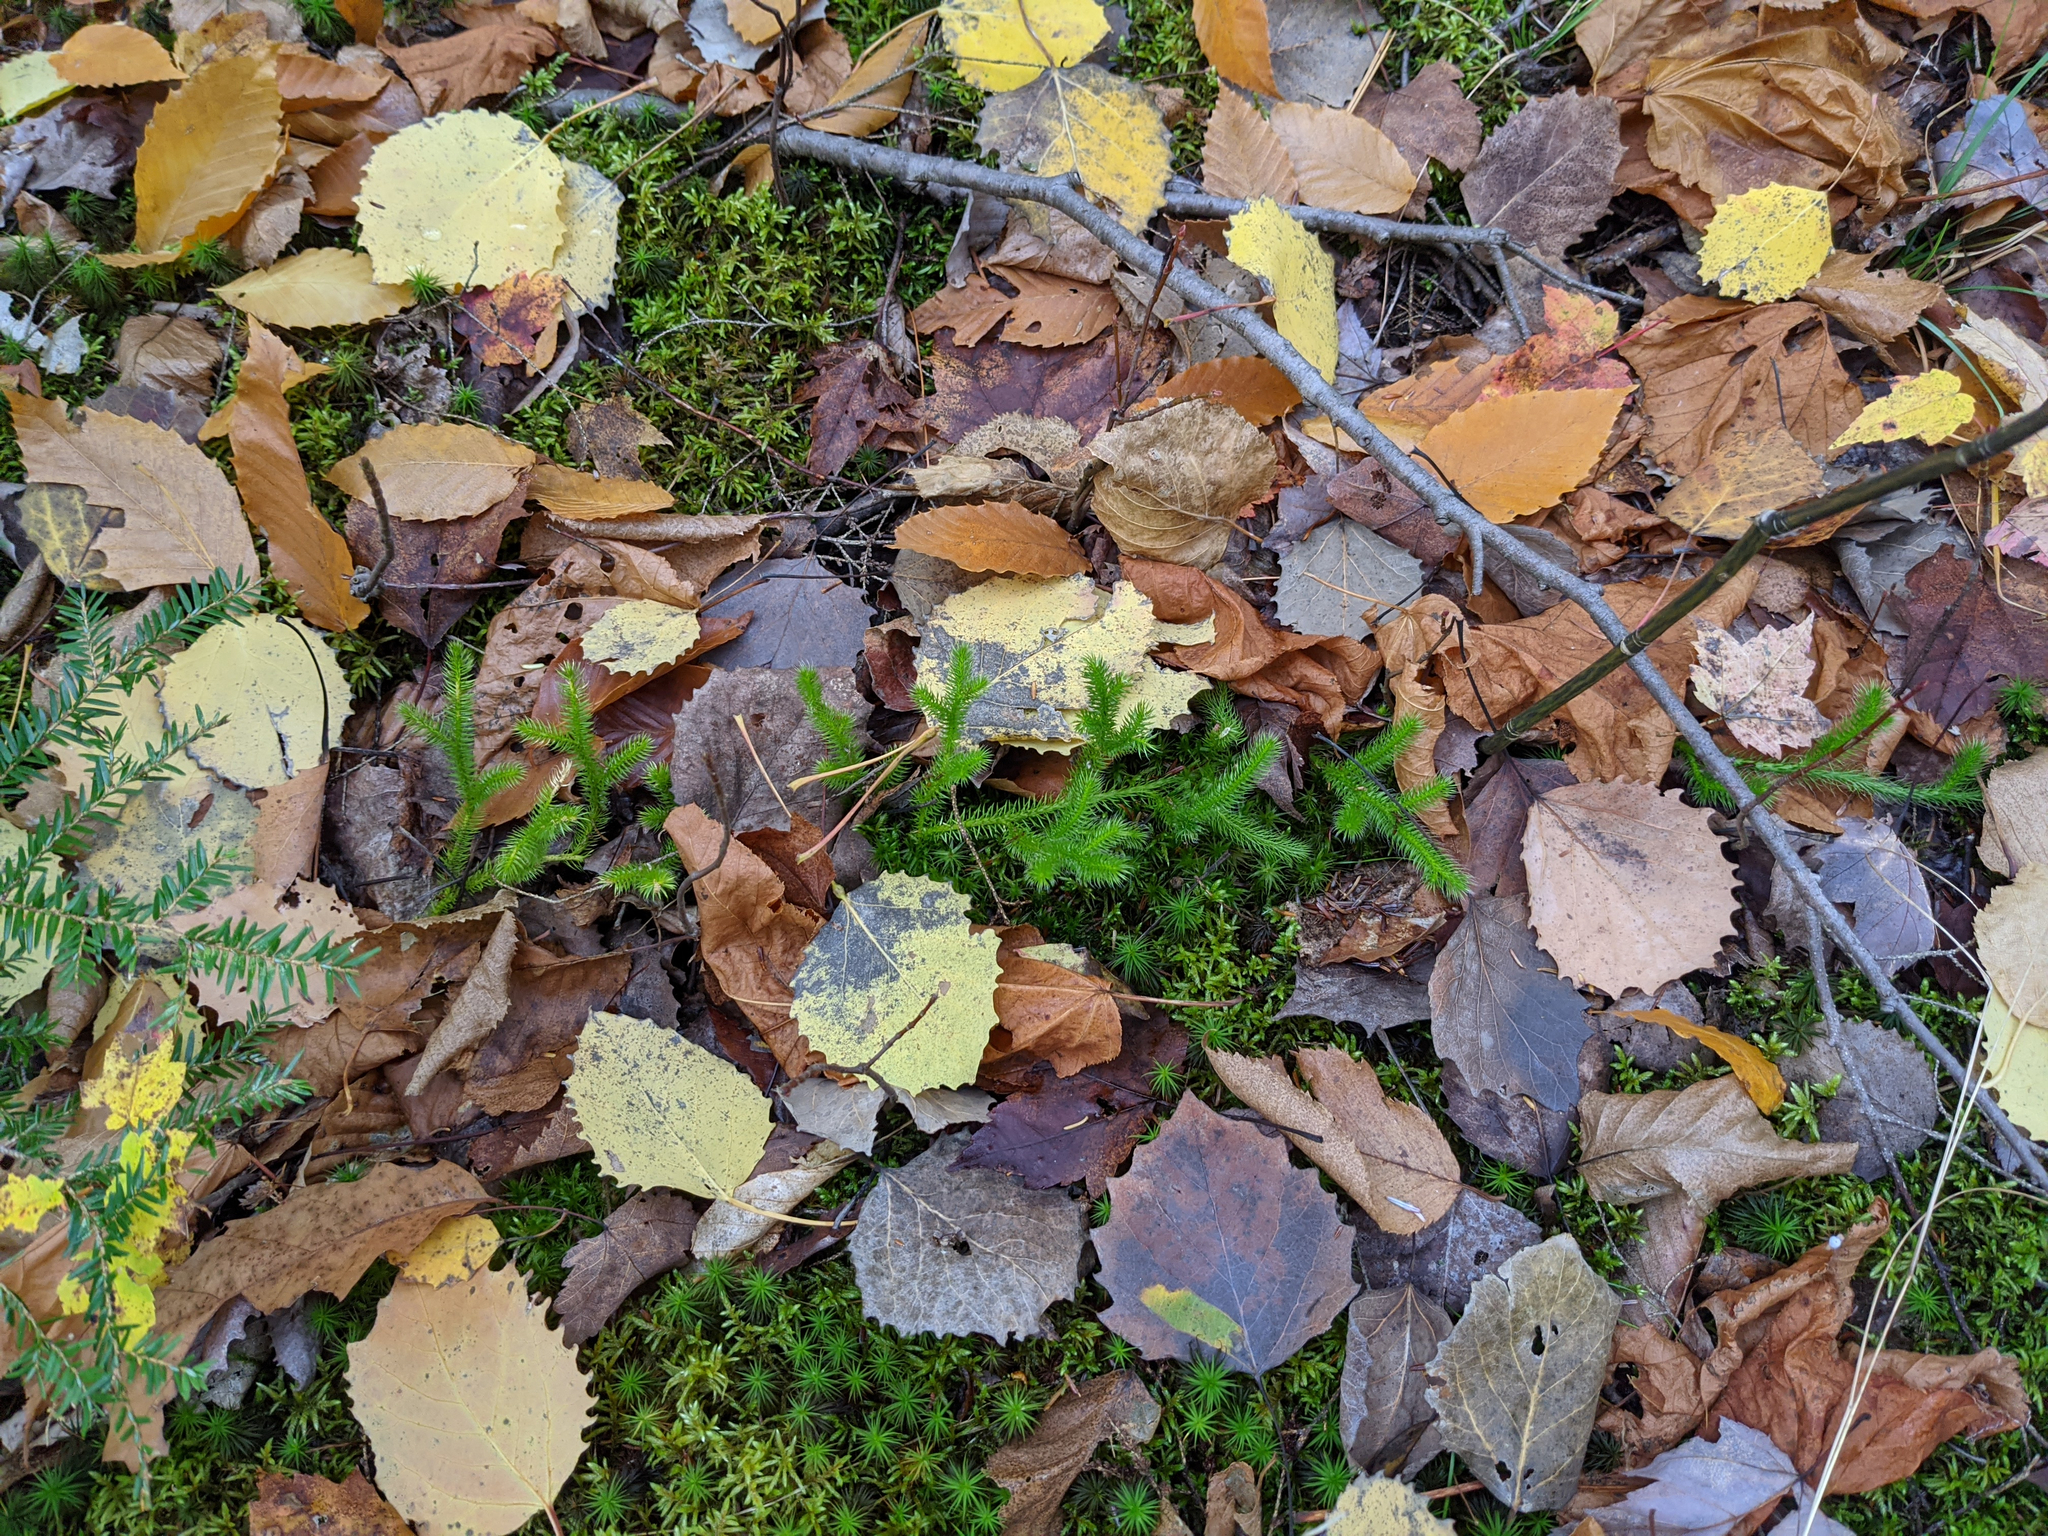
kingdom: Plantae
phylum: Tracheophyta
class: Magnoliopsida
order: Malpighiales
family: Salicaceae
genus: Populus
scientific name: Populus grandidentata
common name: Bigtooth aspen
